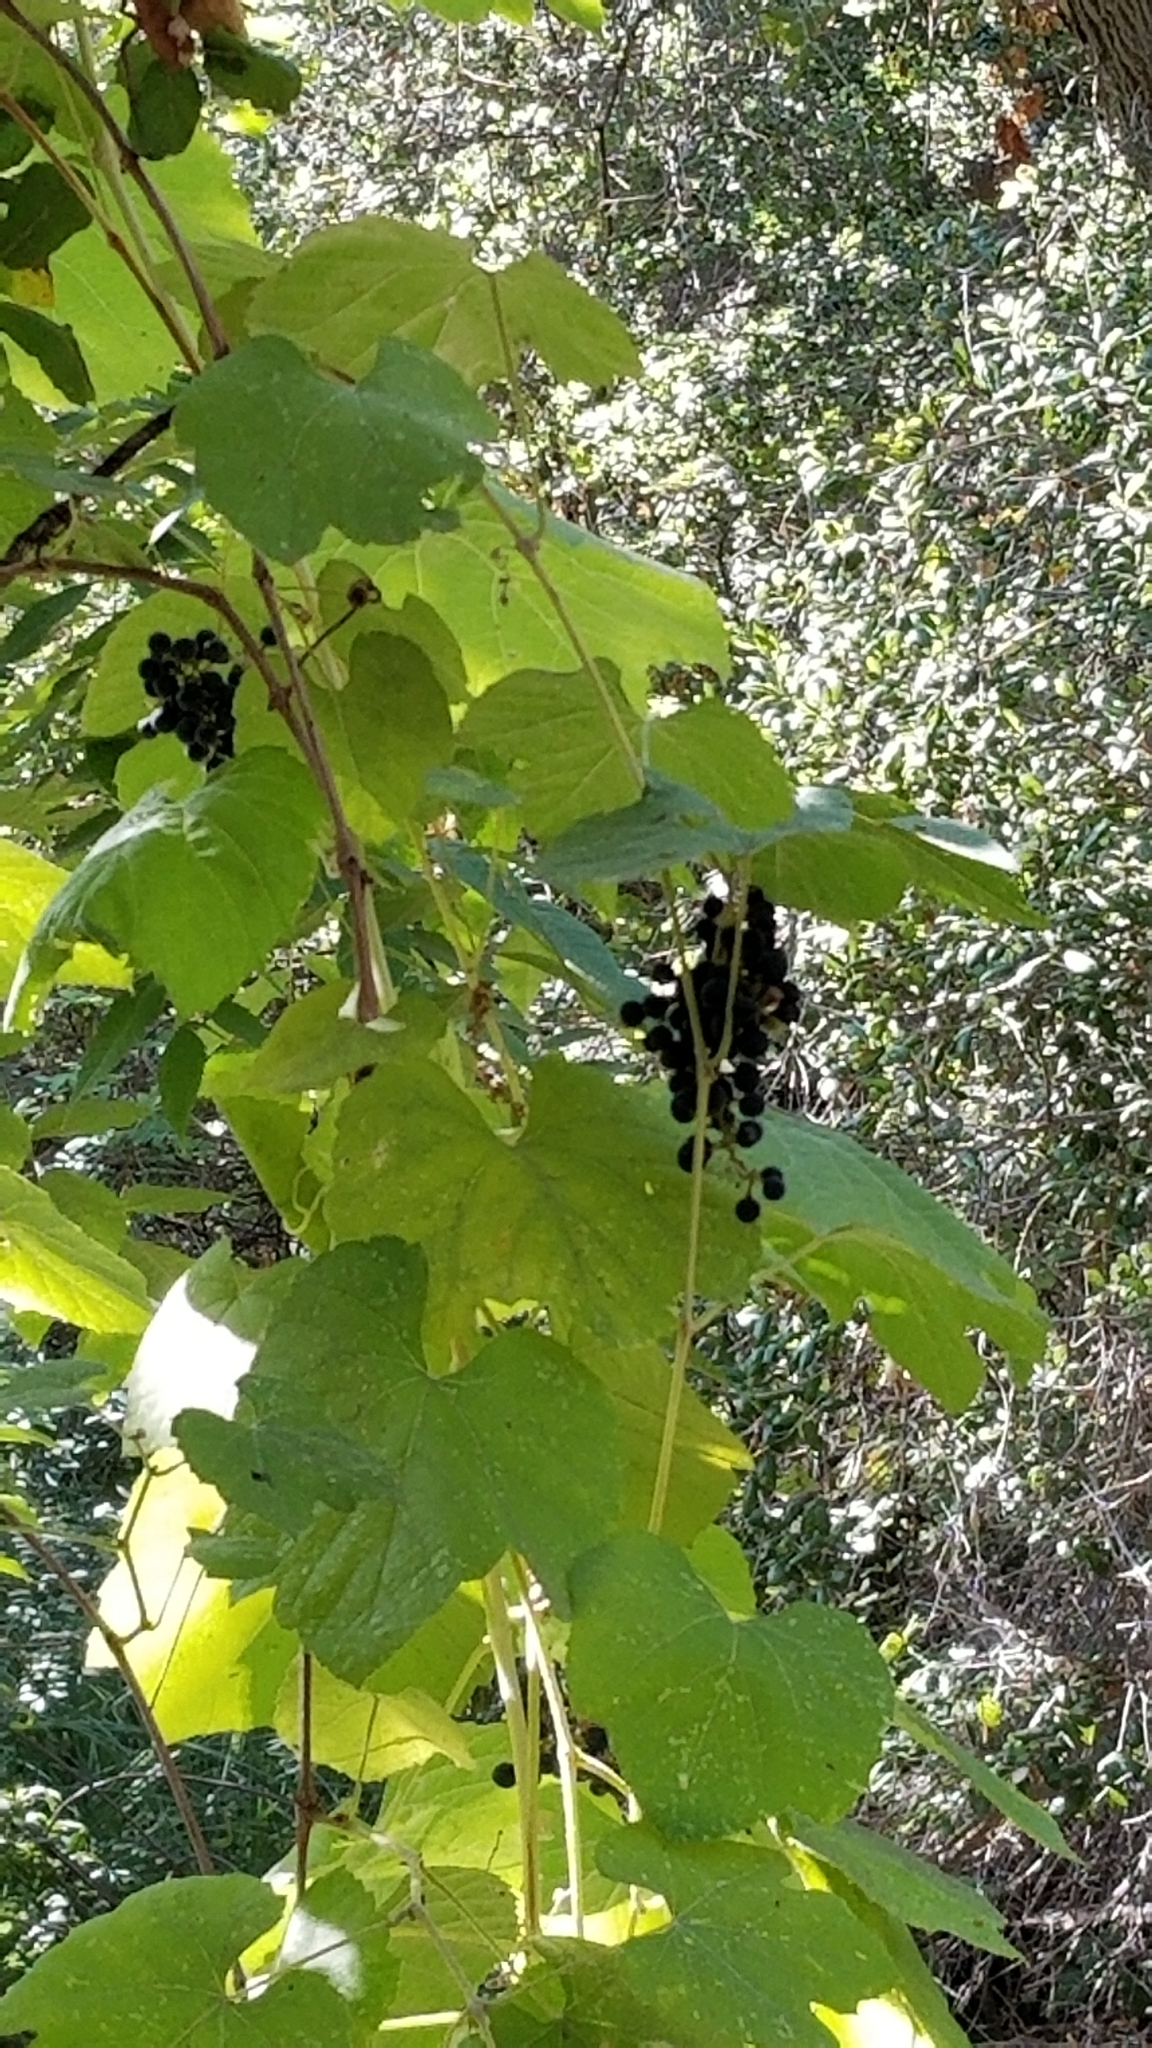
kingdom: Plantae
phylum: Tracheophyta
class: Magnoliopsida
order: Vitales
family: Vitaceae
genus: Vitis
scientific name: Vitis girdiana
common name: Desert wild grape
